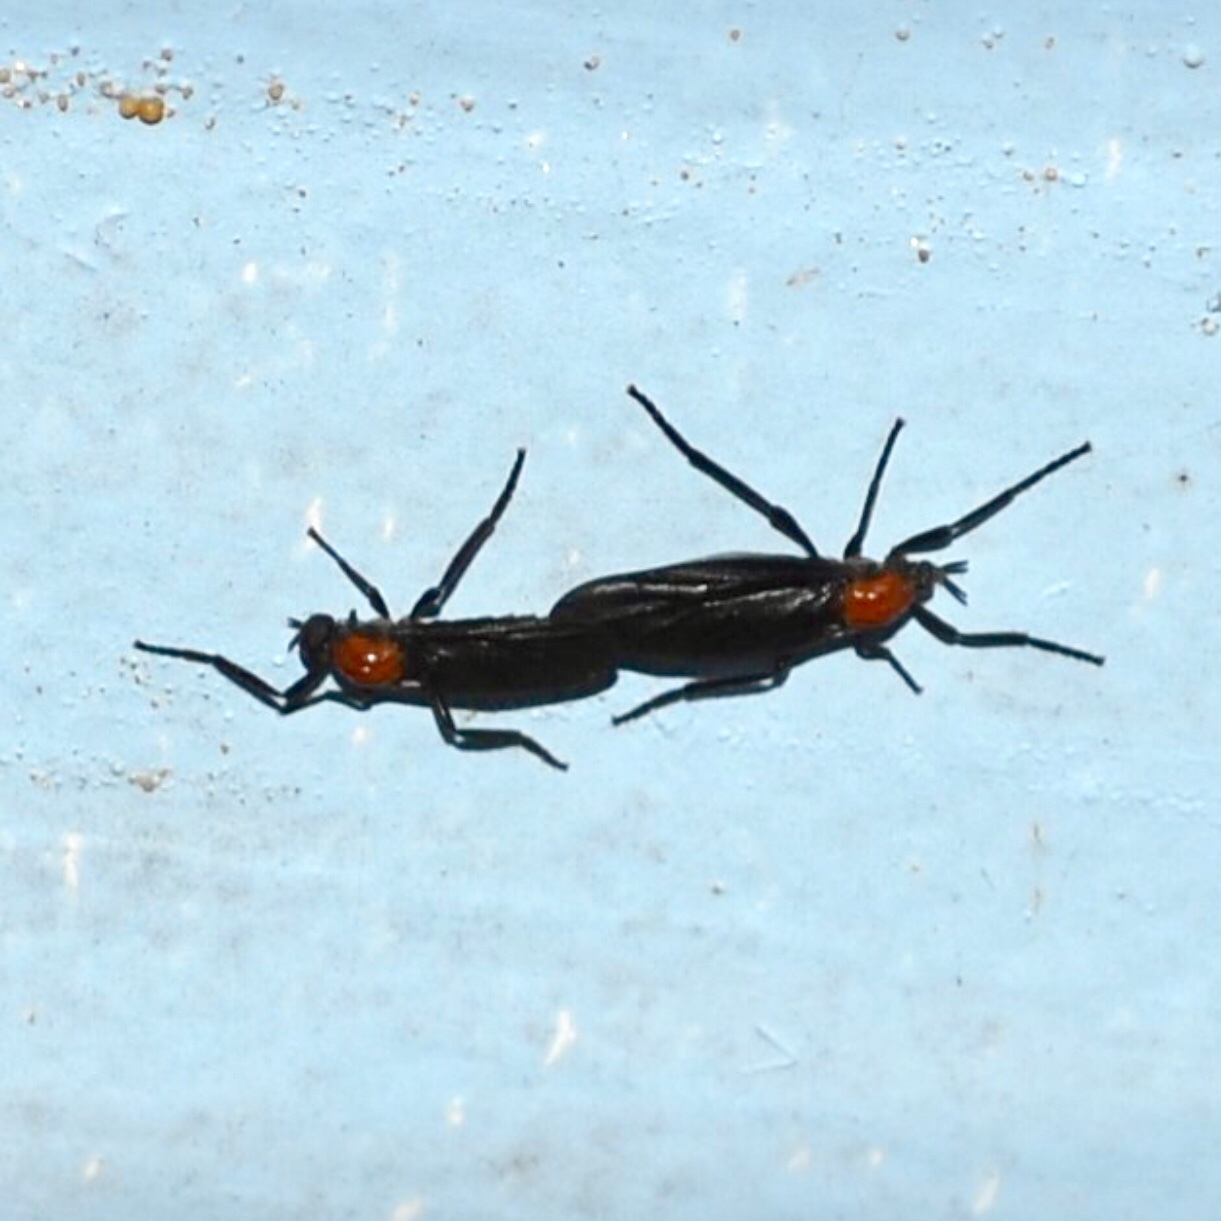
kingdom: Animalia
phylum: Arthropoda
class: Insecta
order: Diptera
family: Bibionidae
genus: Plecia
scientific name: Plecia nearctica
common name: March fly
